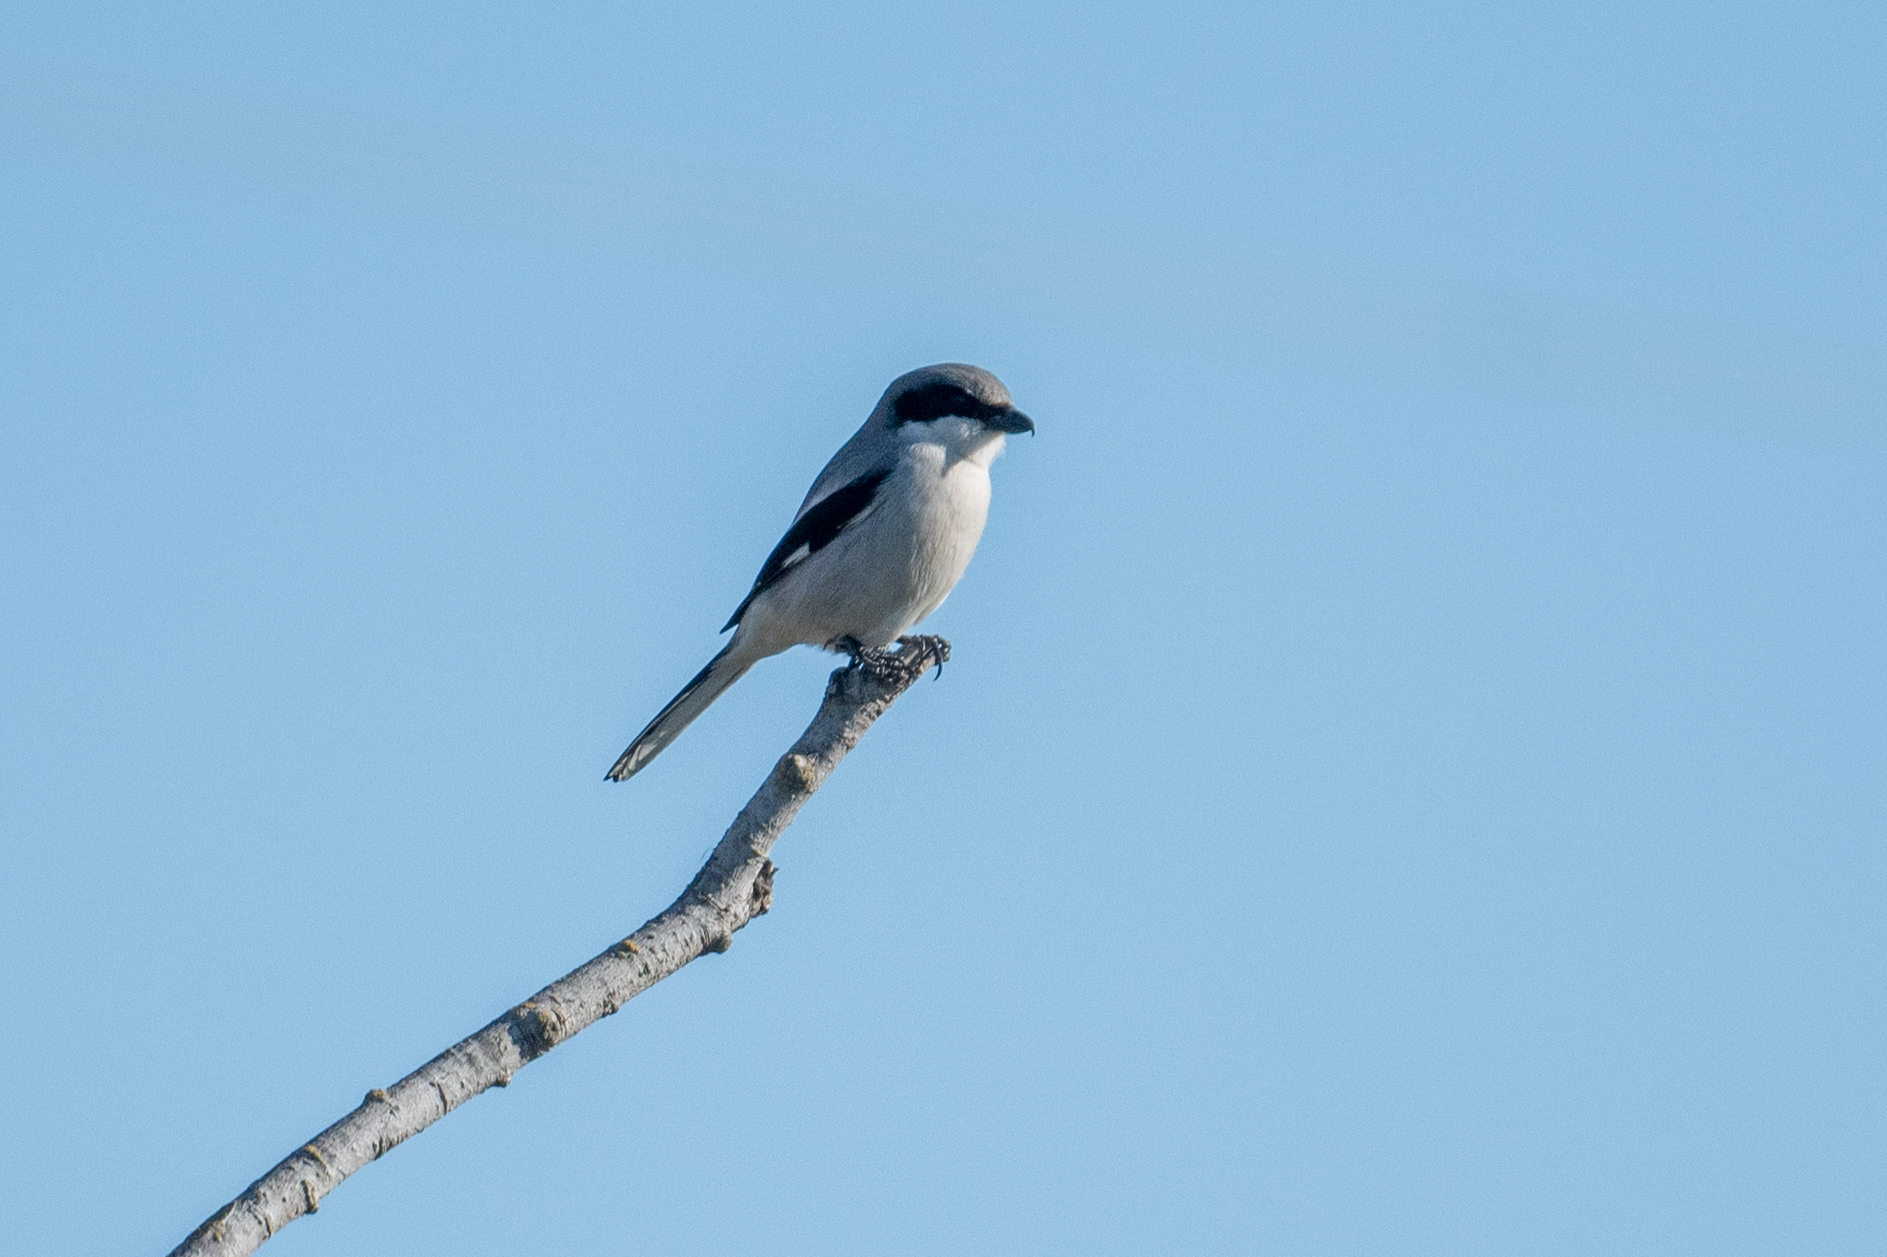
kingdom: Animalia
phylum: Chordata
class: Aves
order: Passeriformes
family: Laniidae
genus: Lanius
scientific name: Lanius ludovicianus
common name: Loggerhead shrike
